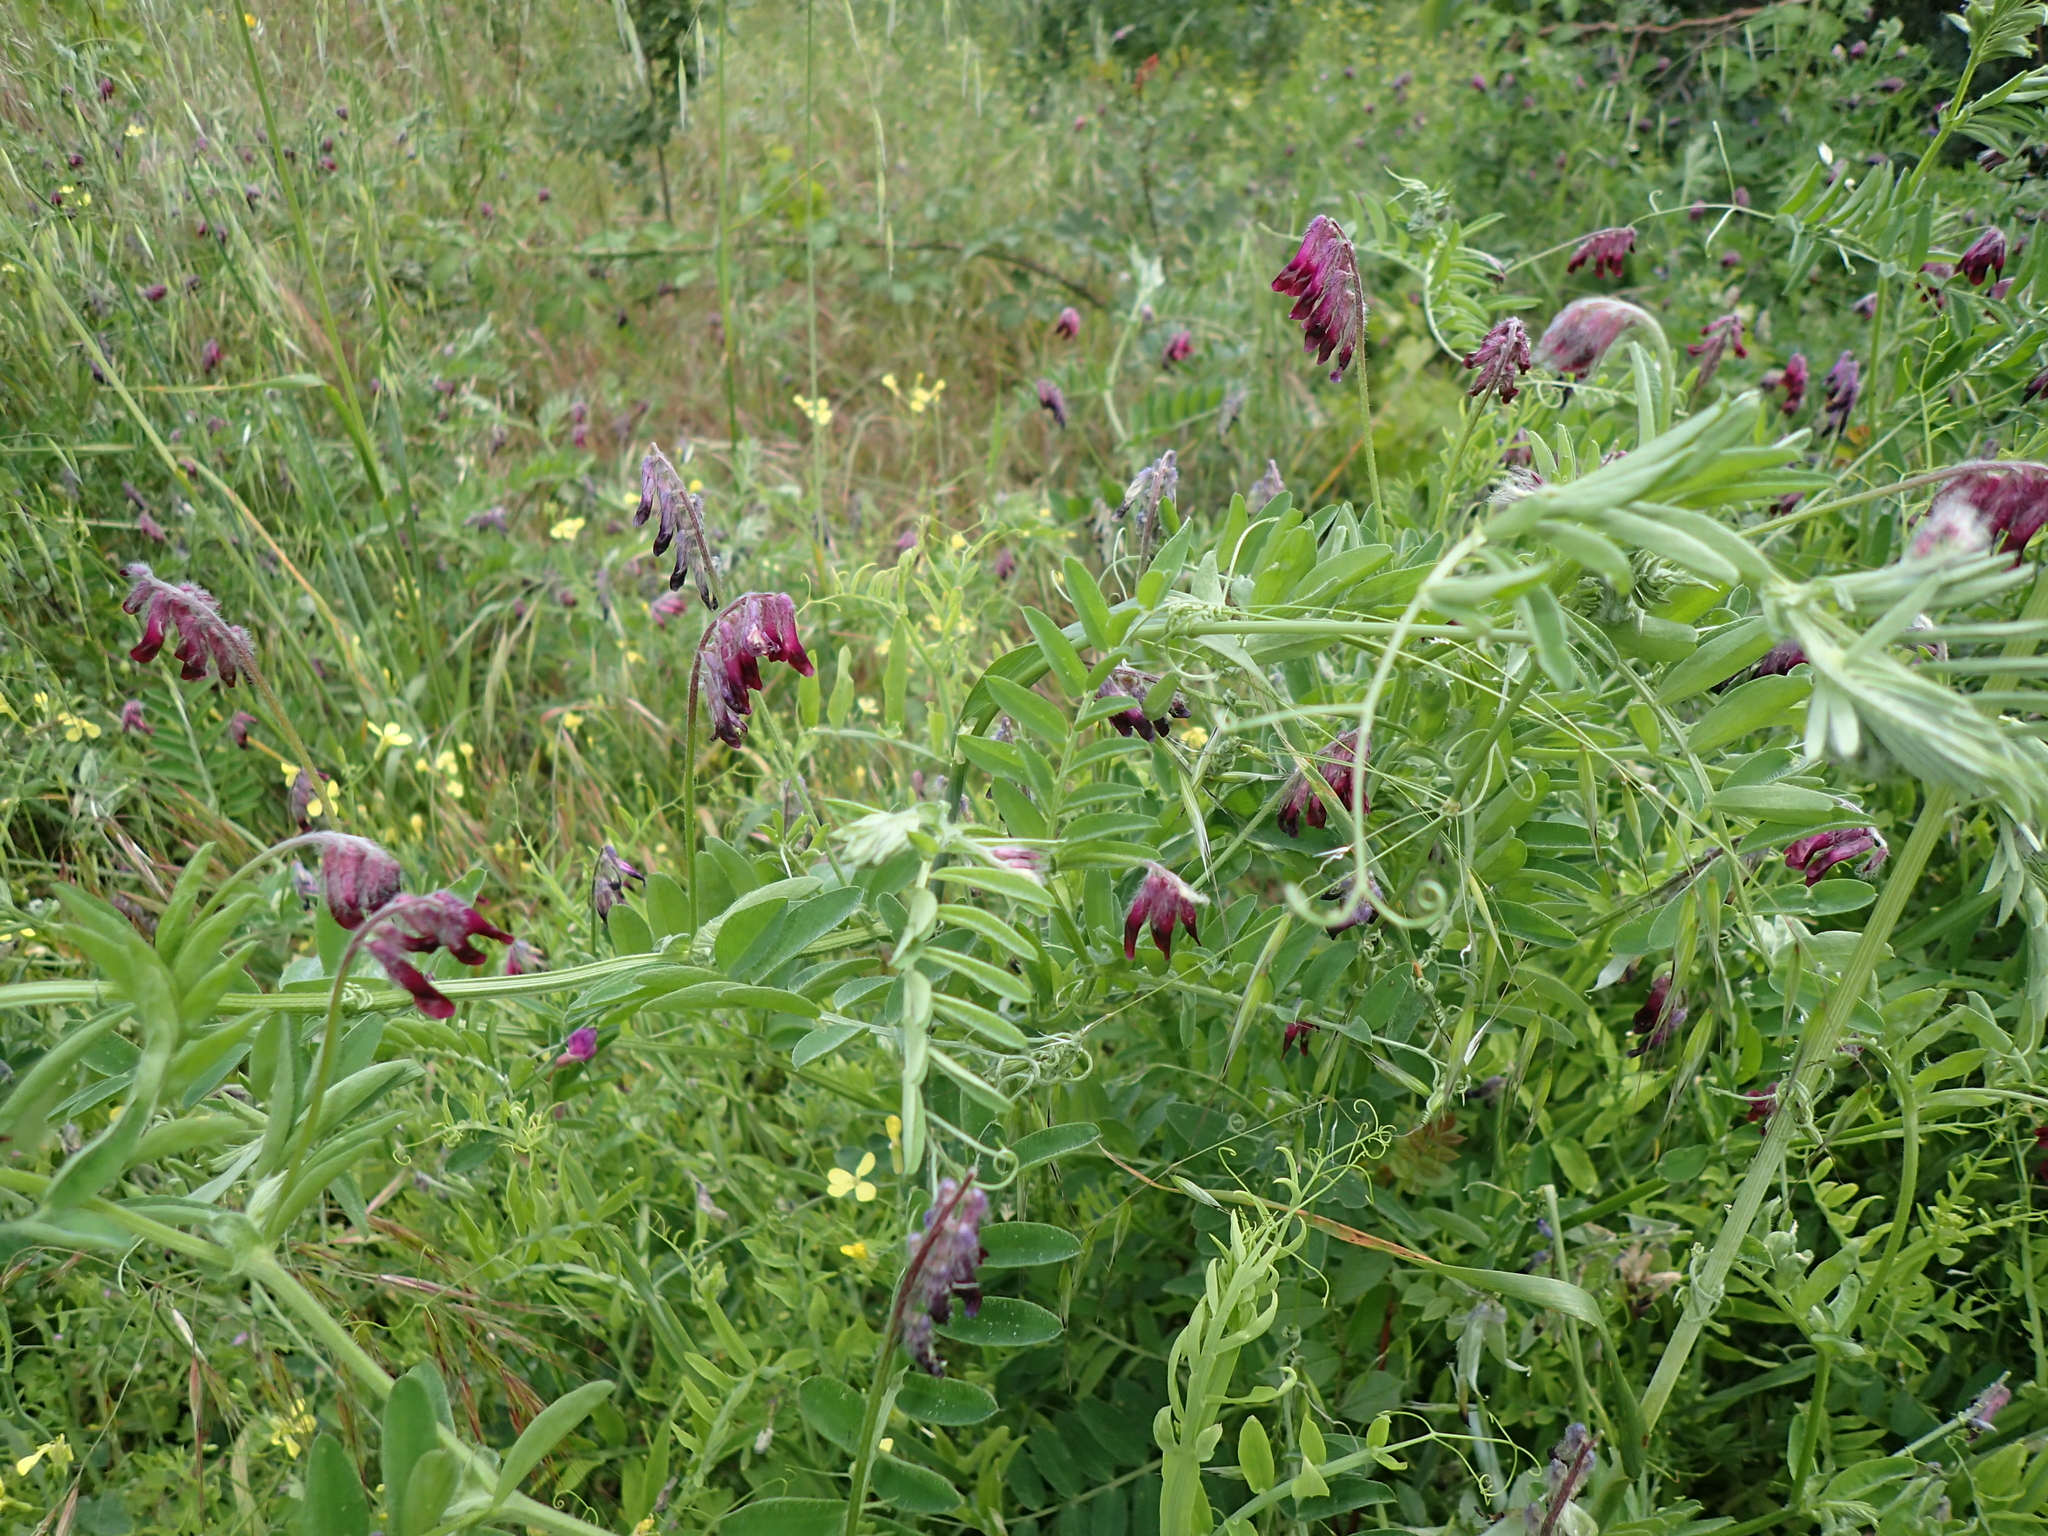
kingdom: Plantae
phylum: Tracheophyta
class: Magnoliopsida
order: Fabales
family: Fabaceae
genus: Vicia
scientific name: Vicia benghalensis
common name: Purple vetch
